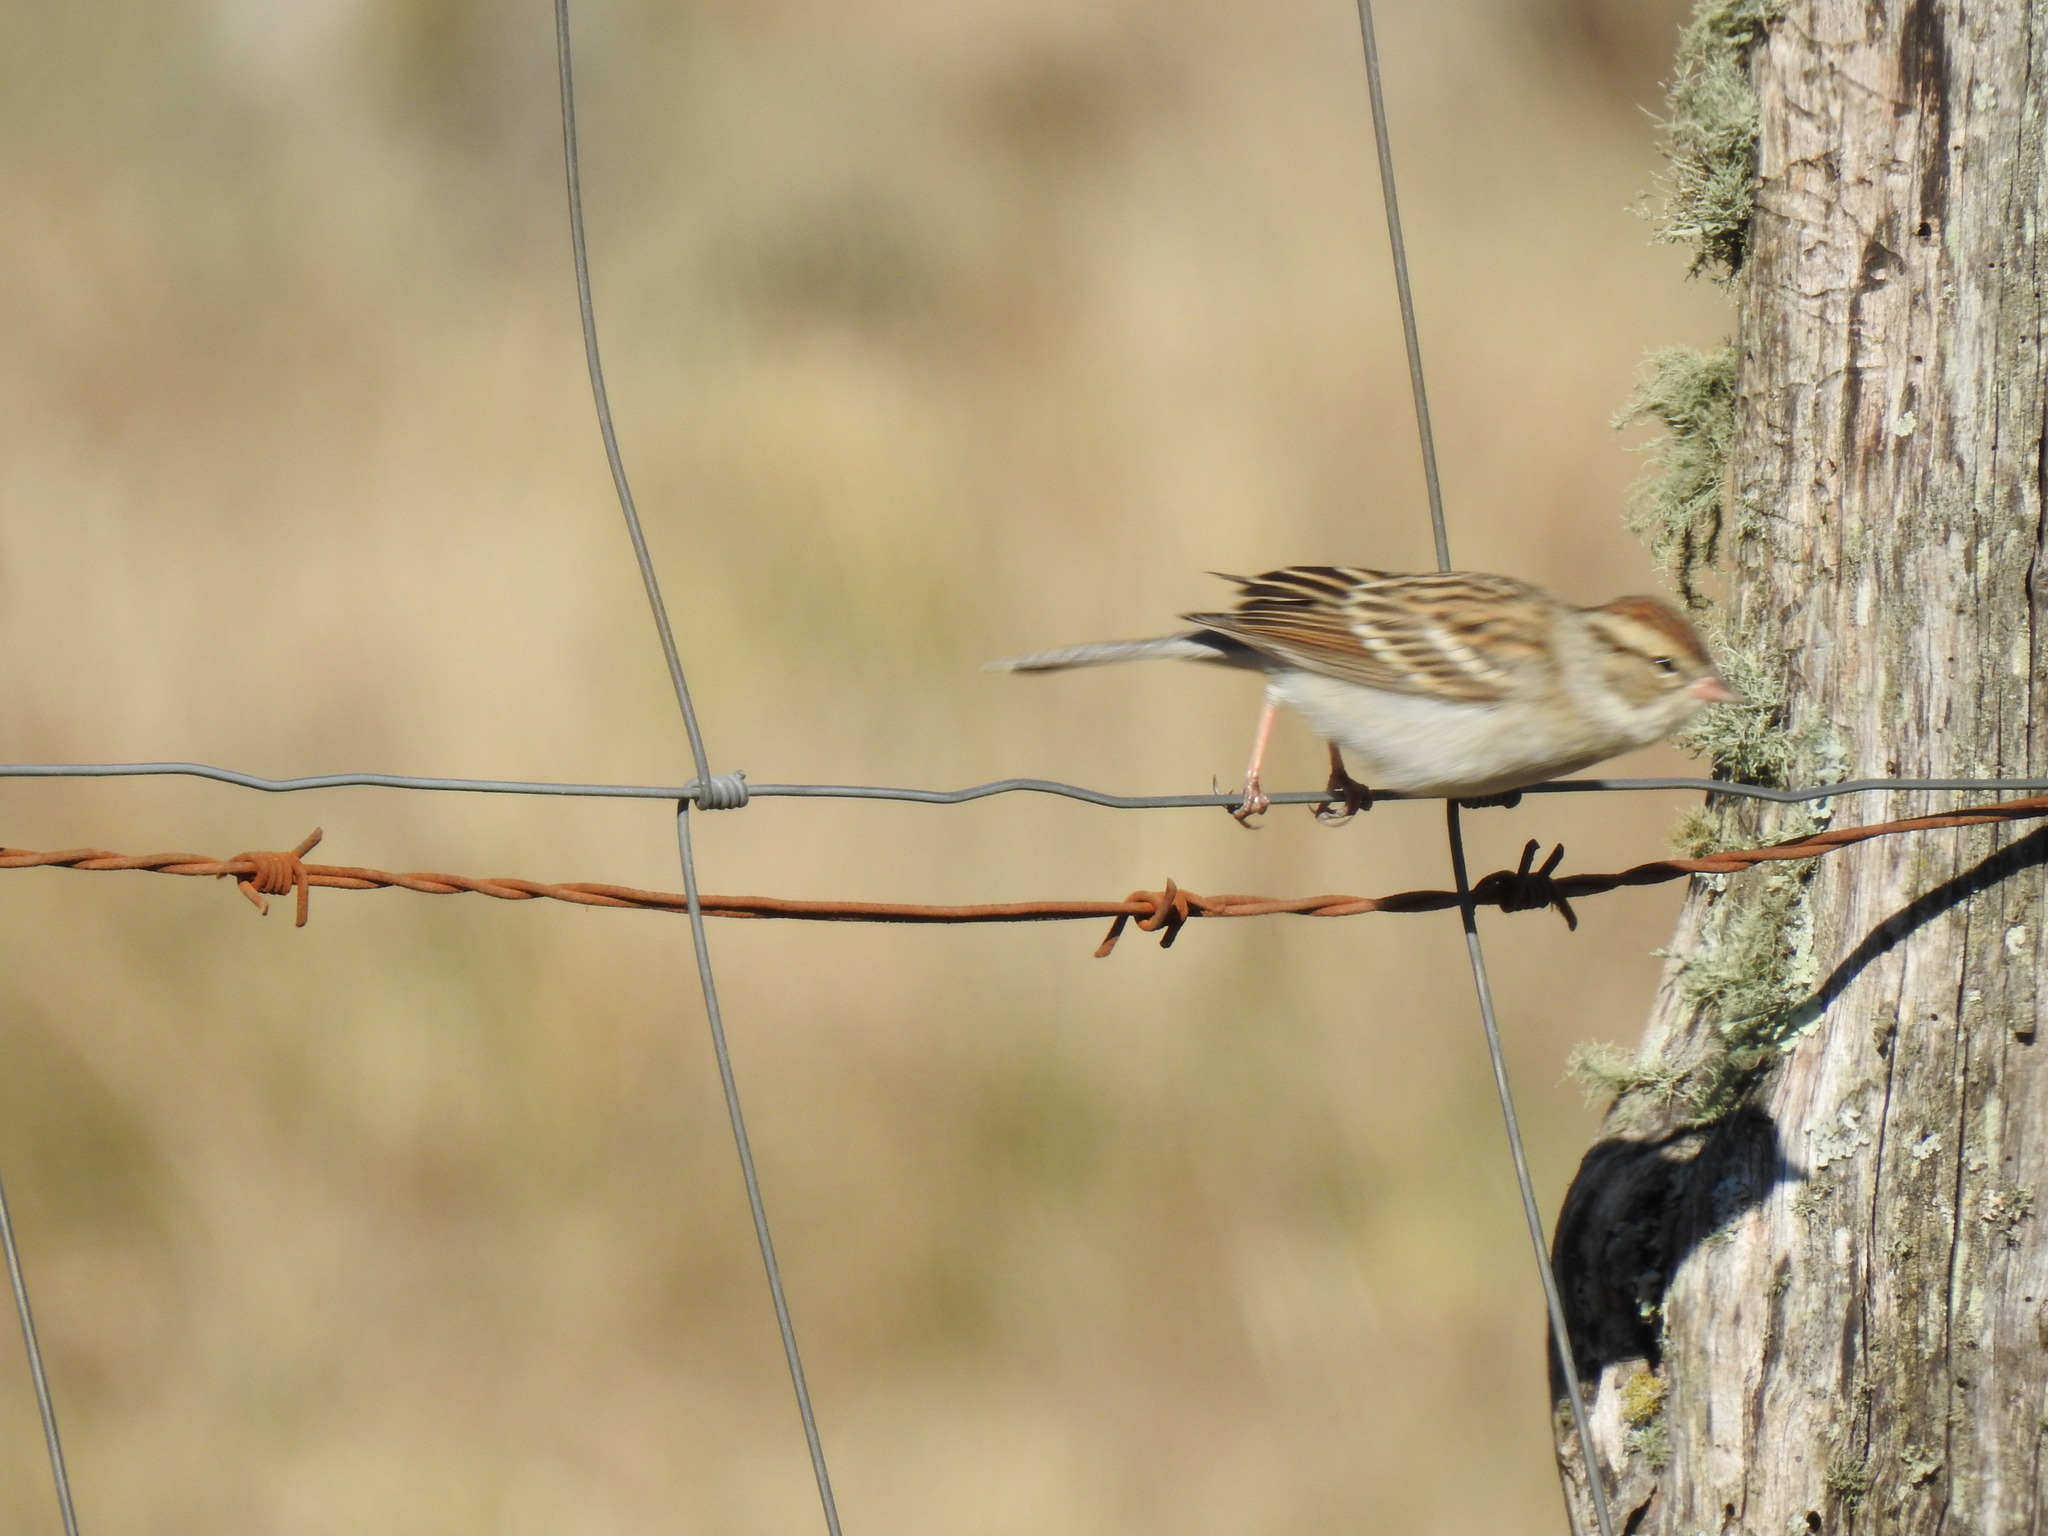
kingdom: Animalia
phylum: Chordata
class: Aves
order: Passeriformes
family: Passerellidae
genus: Spizella
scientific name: Spizella passerina
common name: Chipping sparrow
